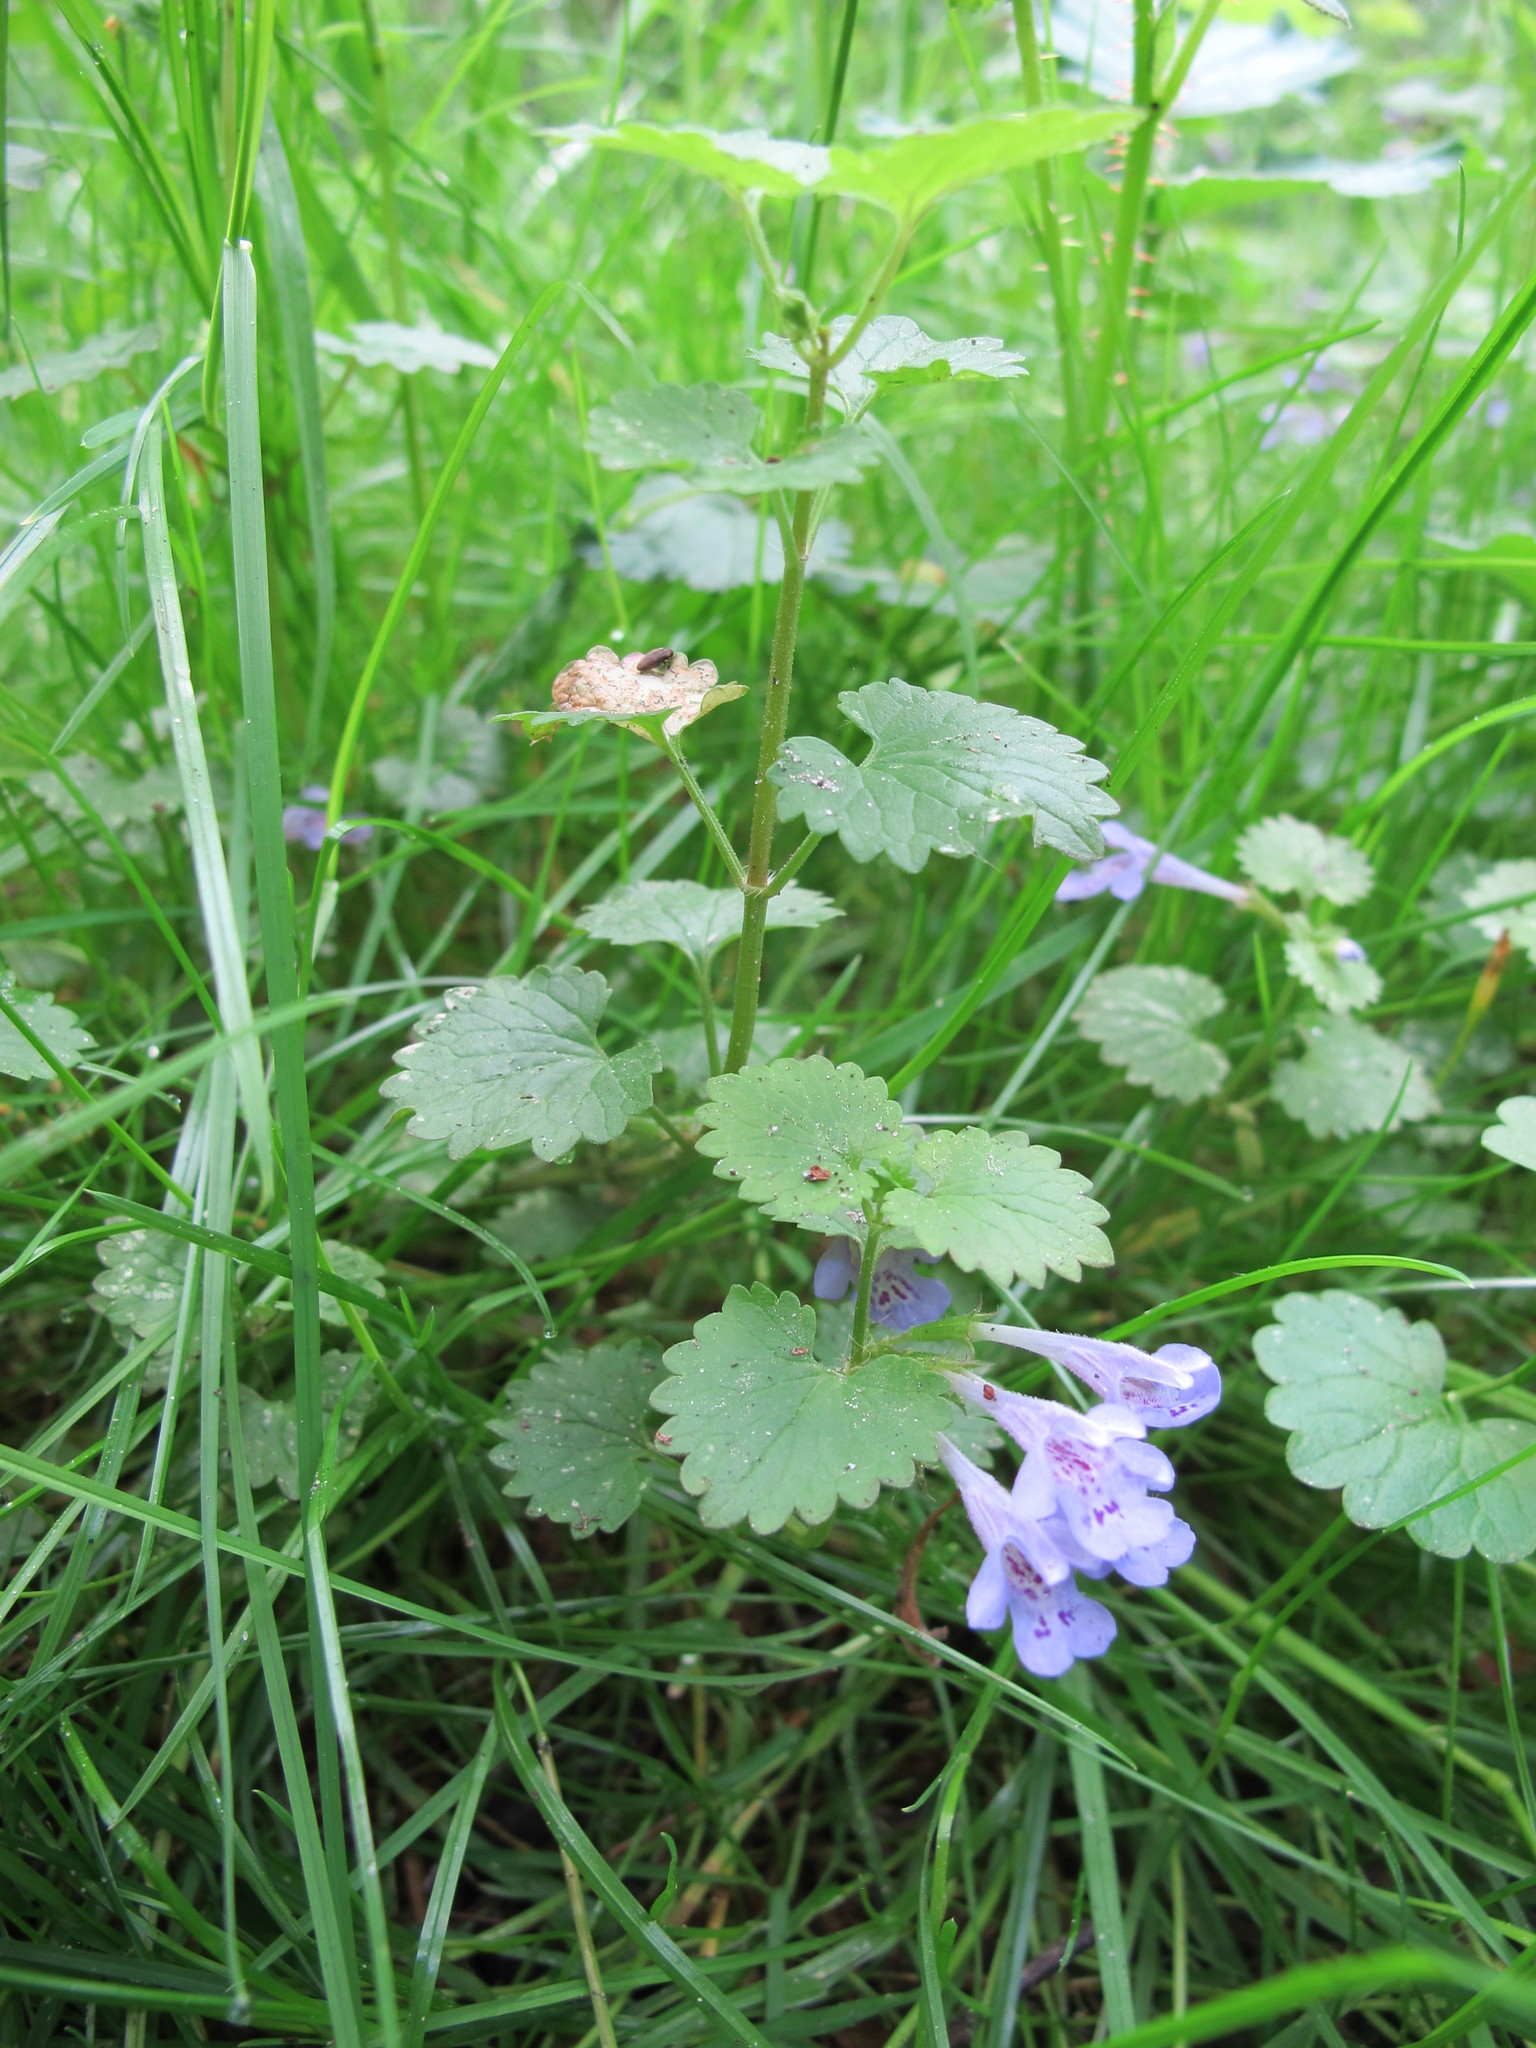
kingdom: Plantae
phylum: Tracheophyta
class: Magnoliopsida
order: Lamiales
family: Lamiaceae
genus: Glechoma
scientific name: Glechoma hederacea
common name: Ground ivy
